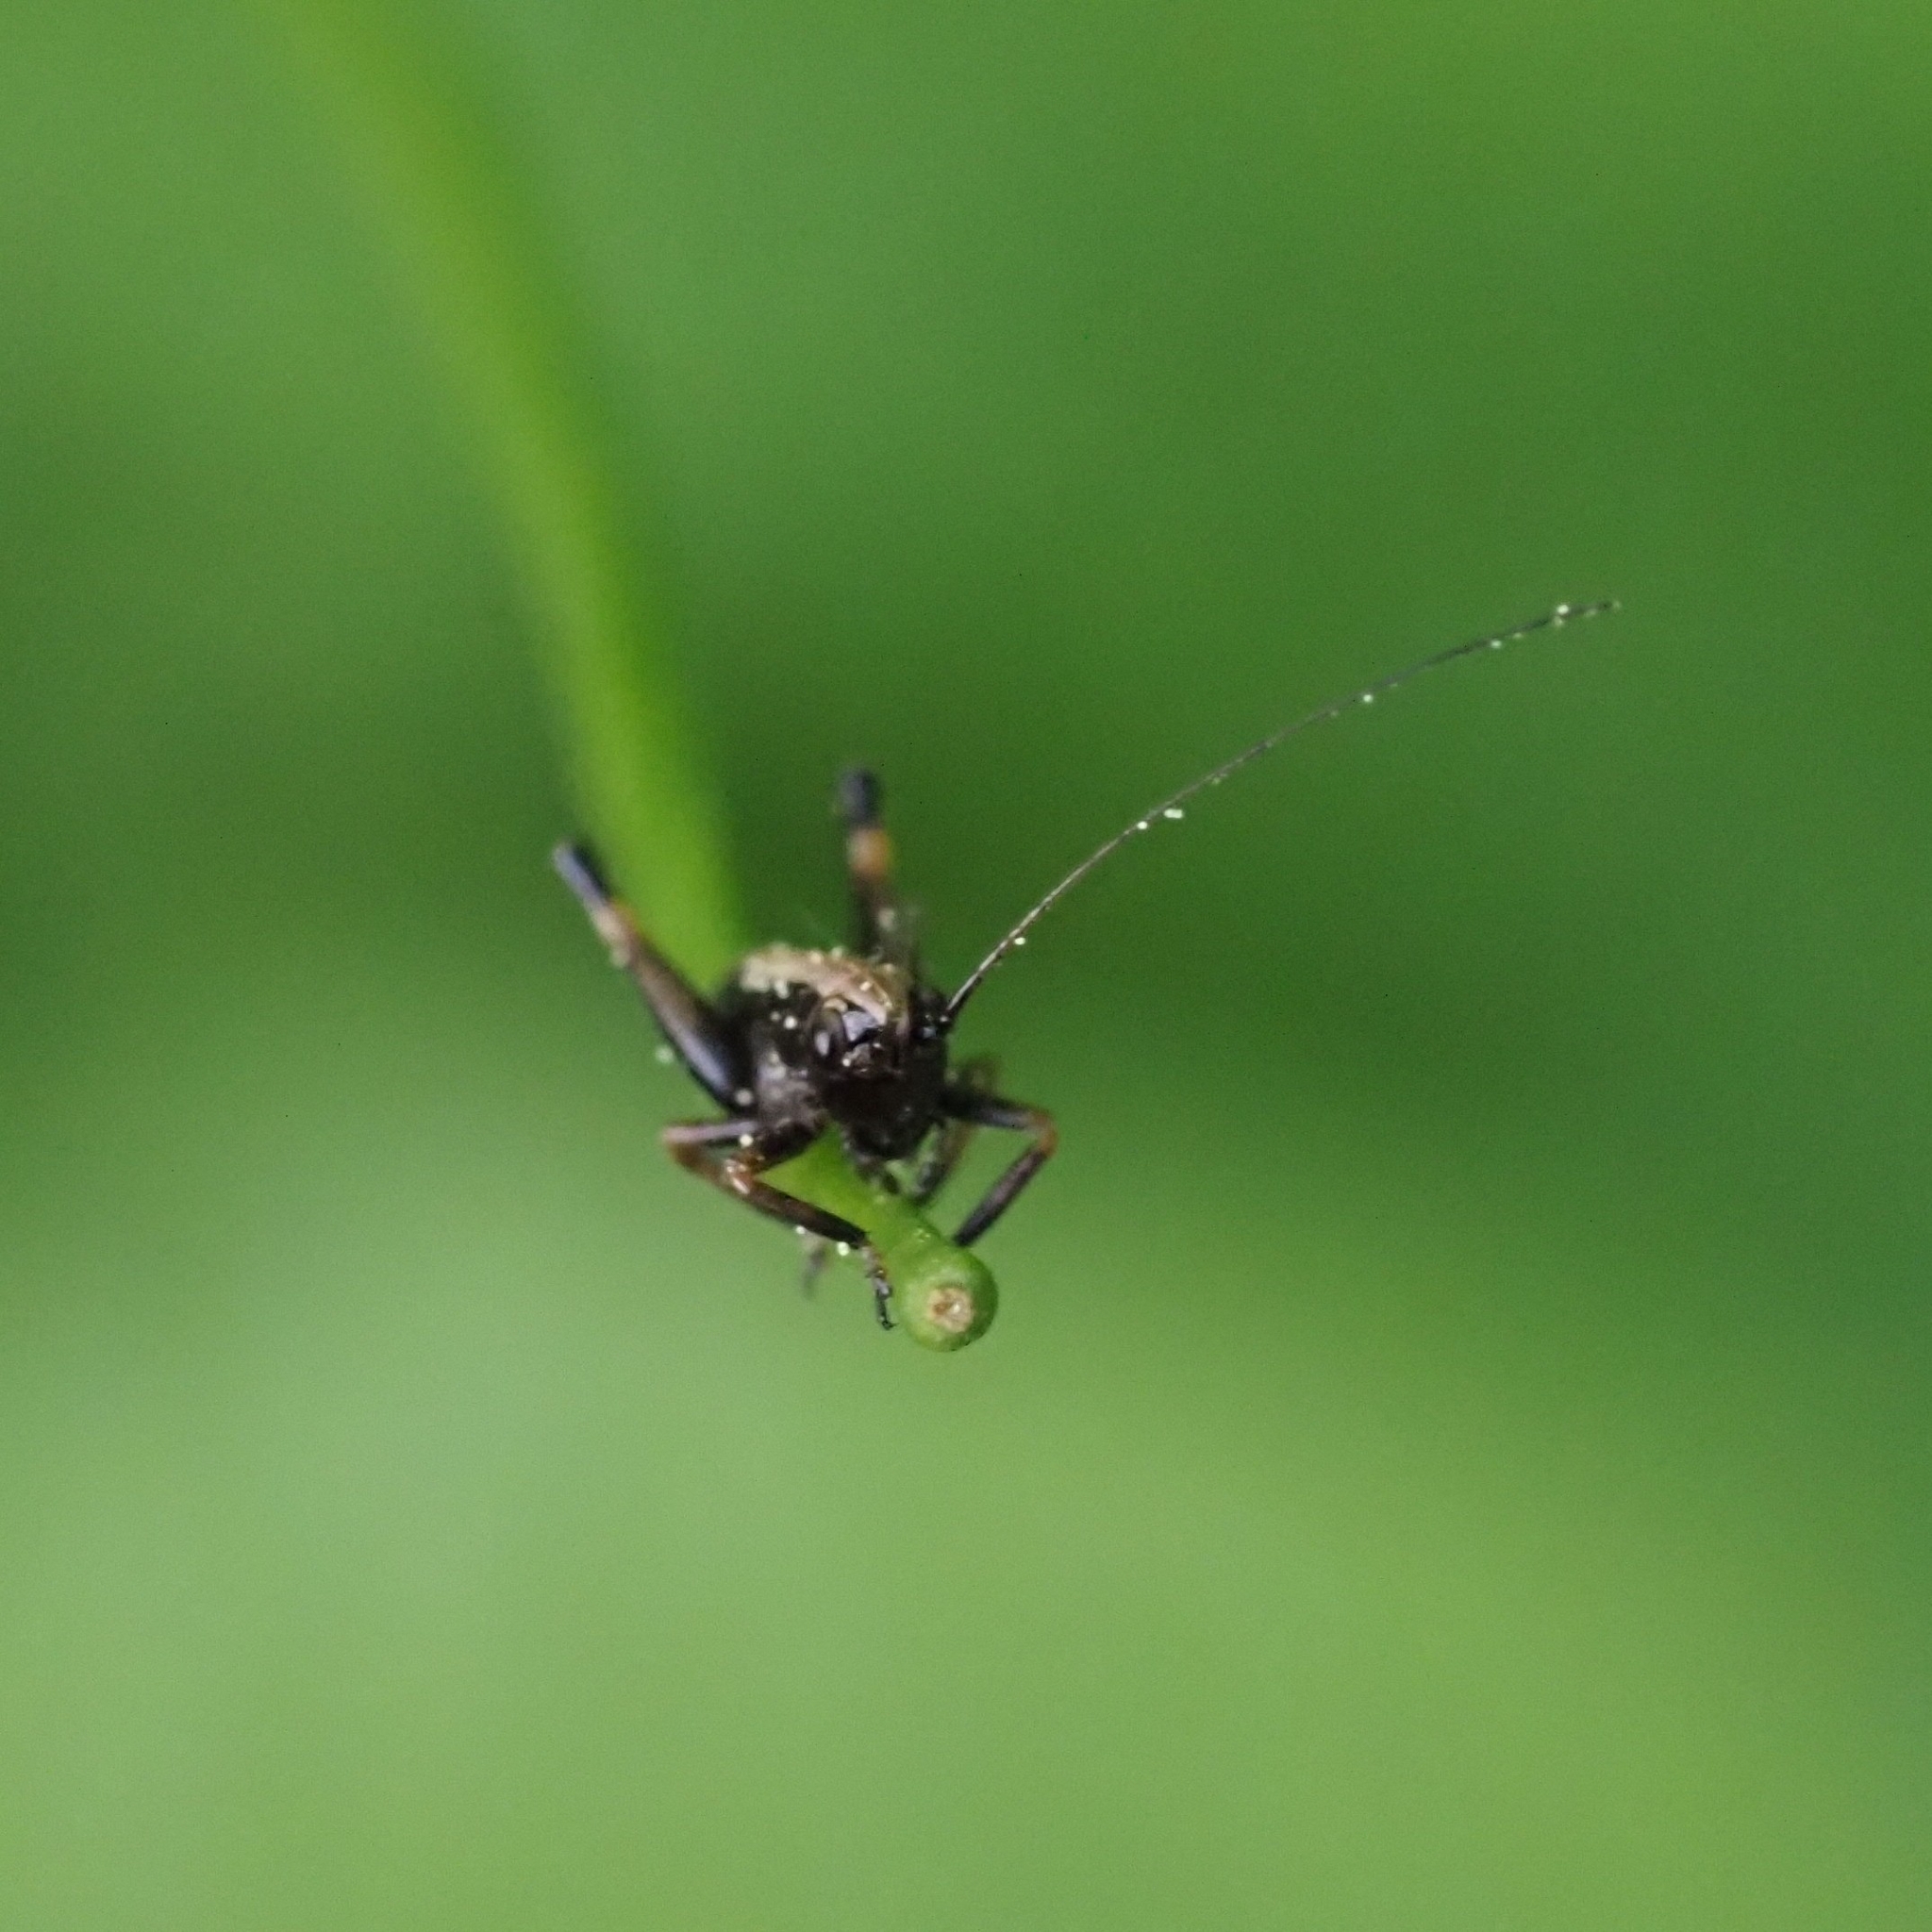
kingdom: Animalia
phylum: Arthropoda
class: Insecta
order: Orthoptera
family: Tettigoniidae
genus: Pholidoptera
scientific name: Pholidoptera griseoaptera
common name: Dark bush-cricket
